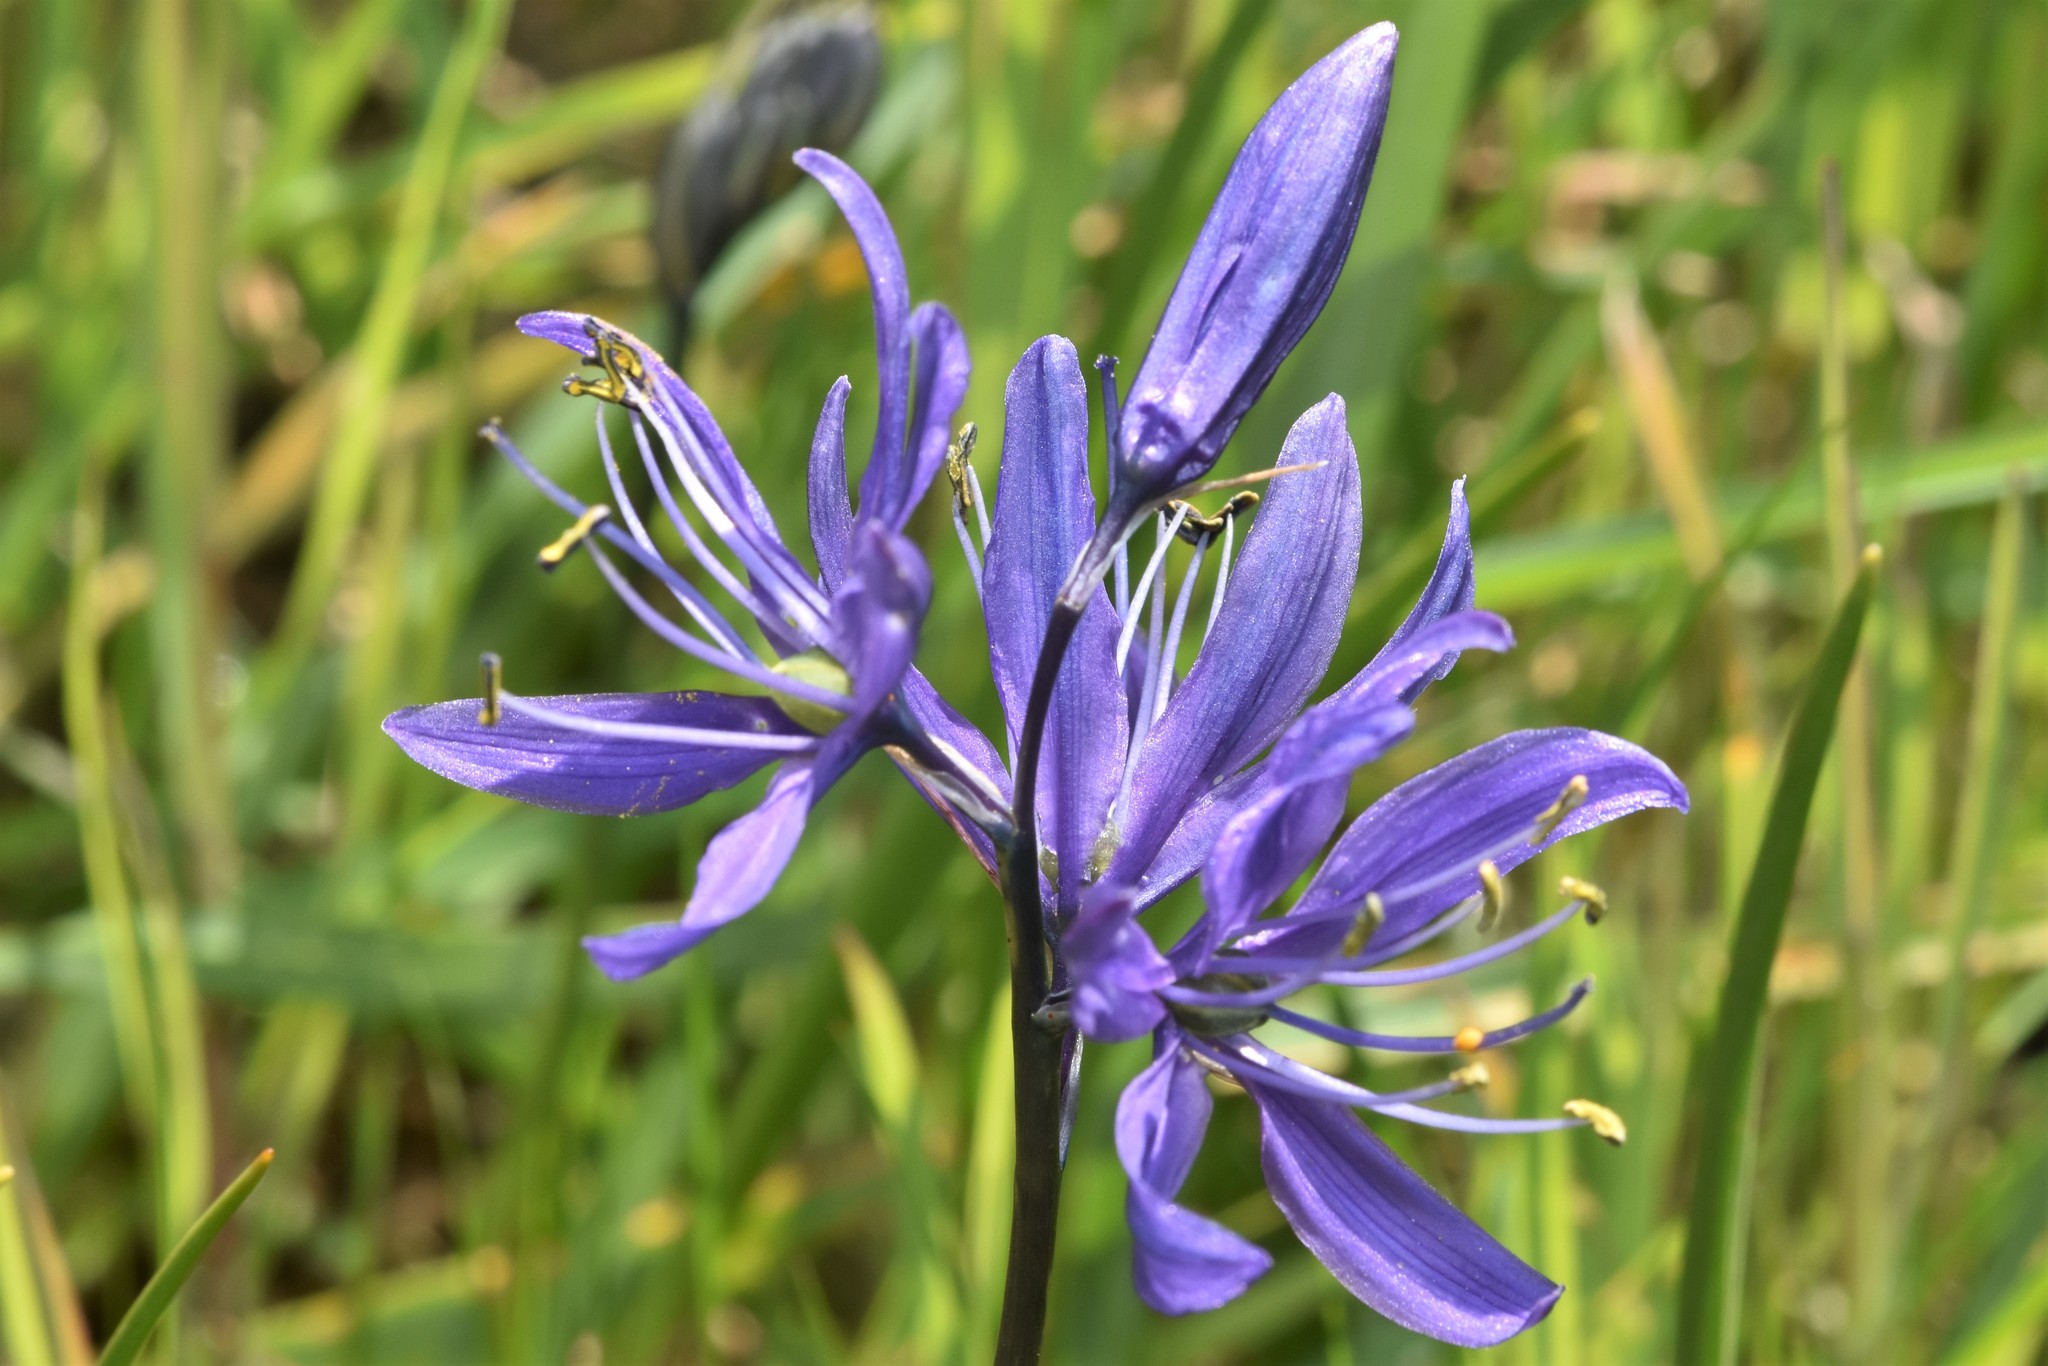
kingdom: Plantae
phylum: Tracheophyta
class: Liliopsida
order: Asparagales
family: Asparagaceae
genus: Camassia
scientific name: Camassia quamash
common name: Common camas
